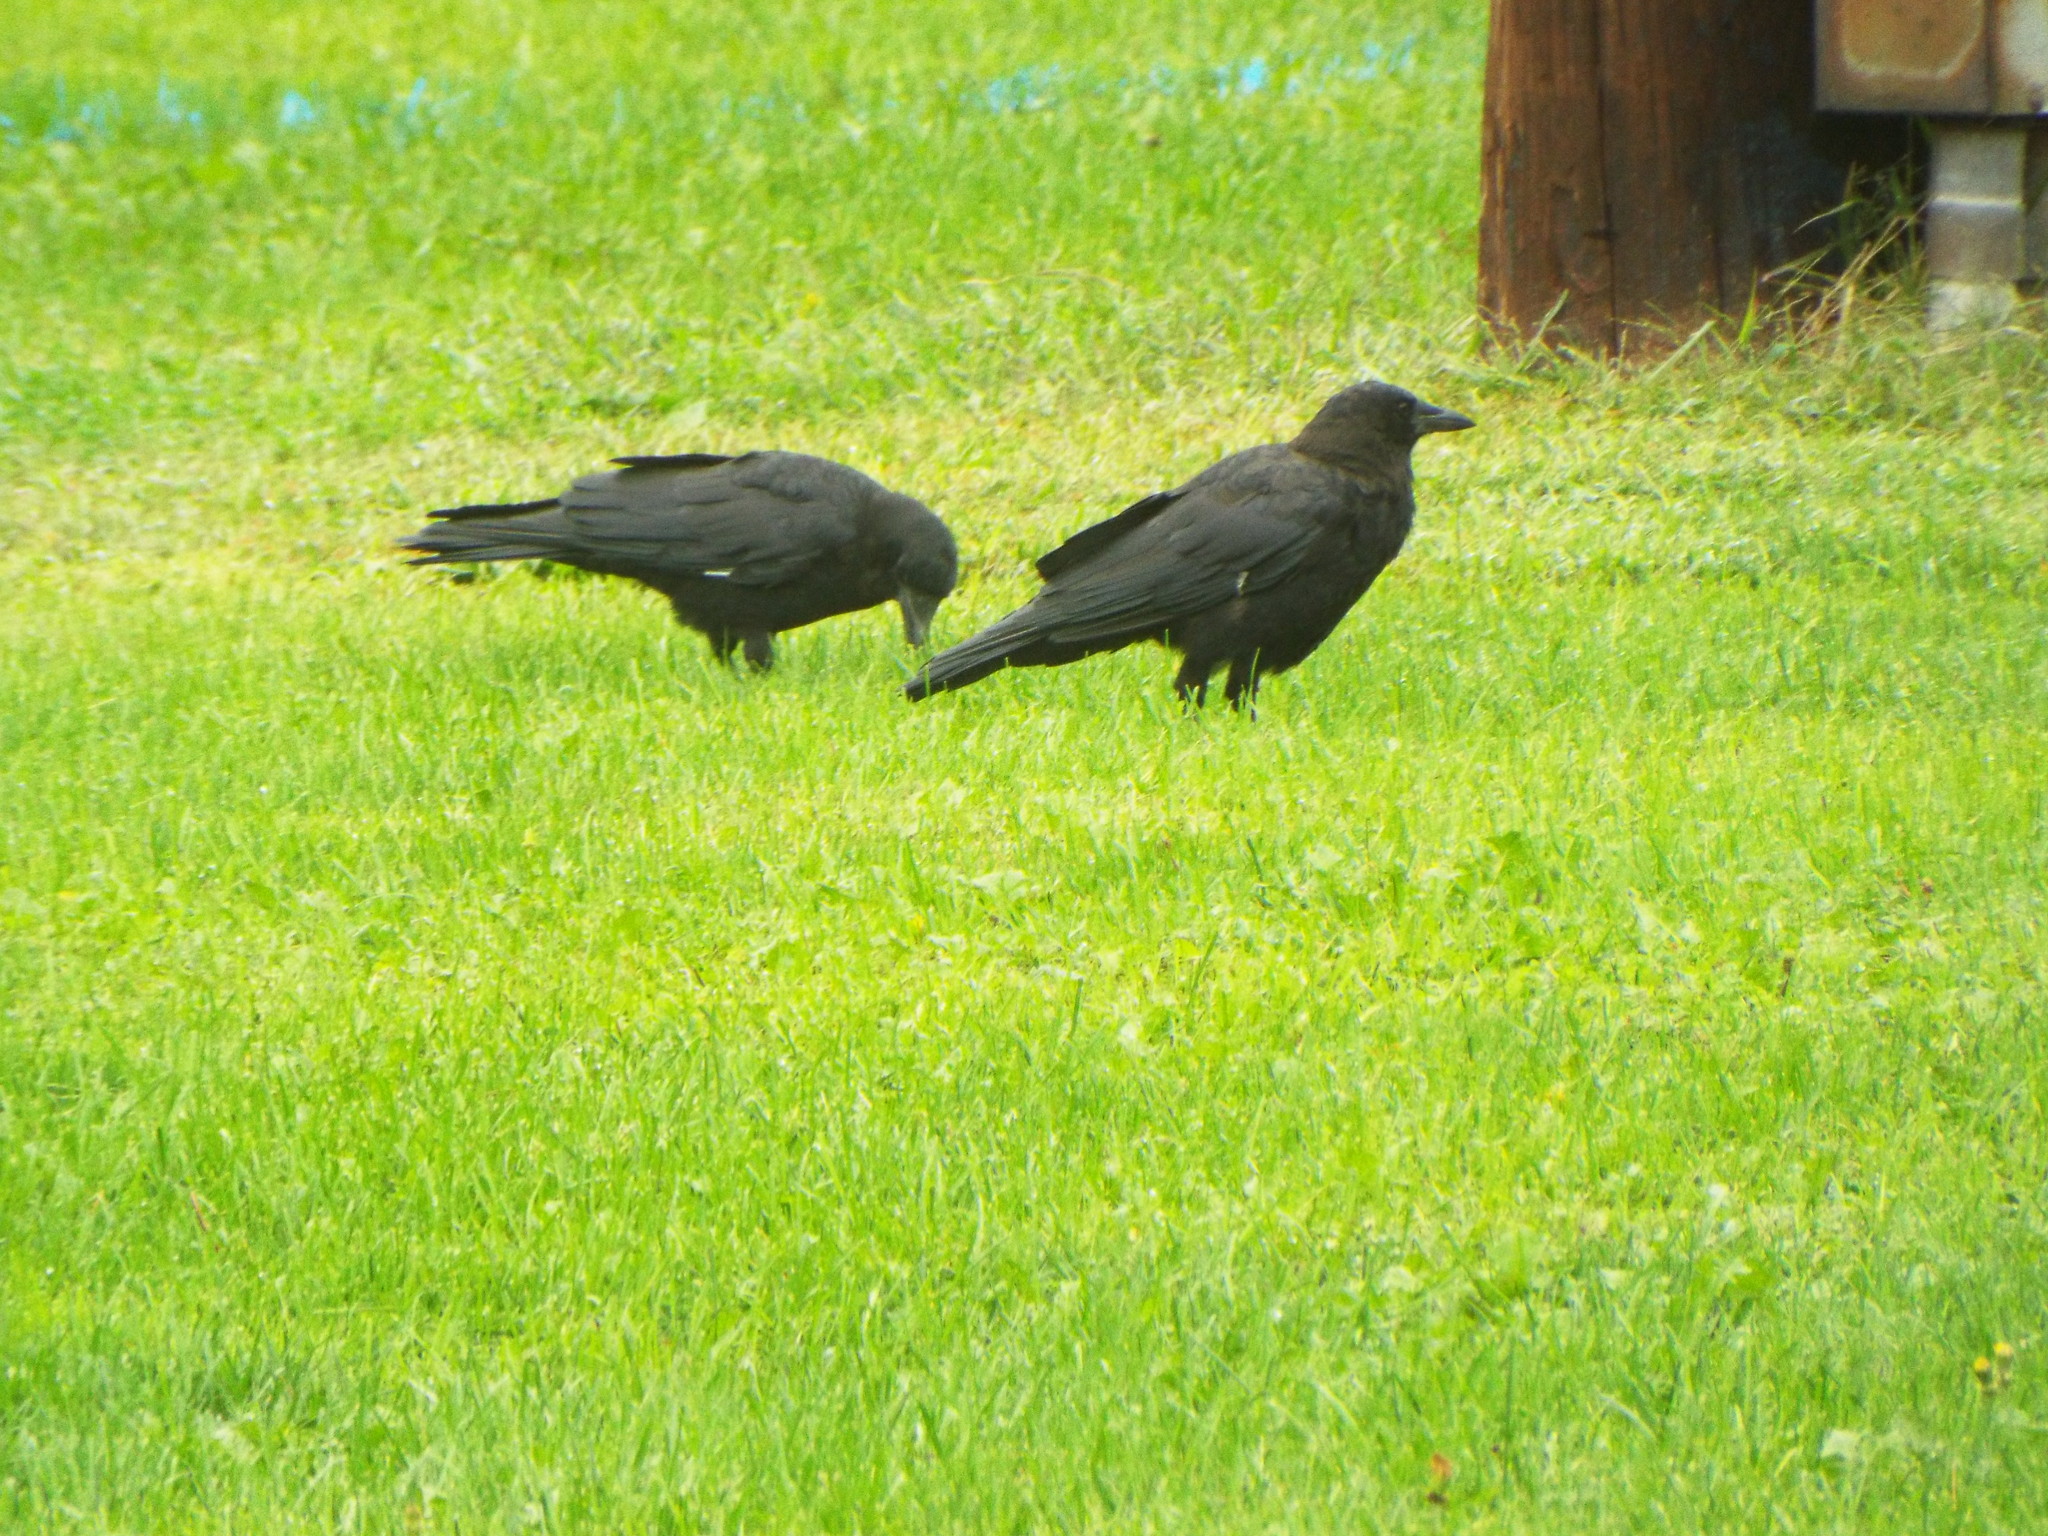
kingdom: Animalia
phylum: Chordata
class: Aves
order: Passeriformes
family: Corvidae
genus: Corvus
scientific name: Corvus brachyrhynchos
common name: American crow
